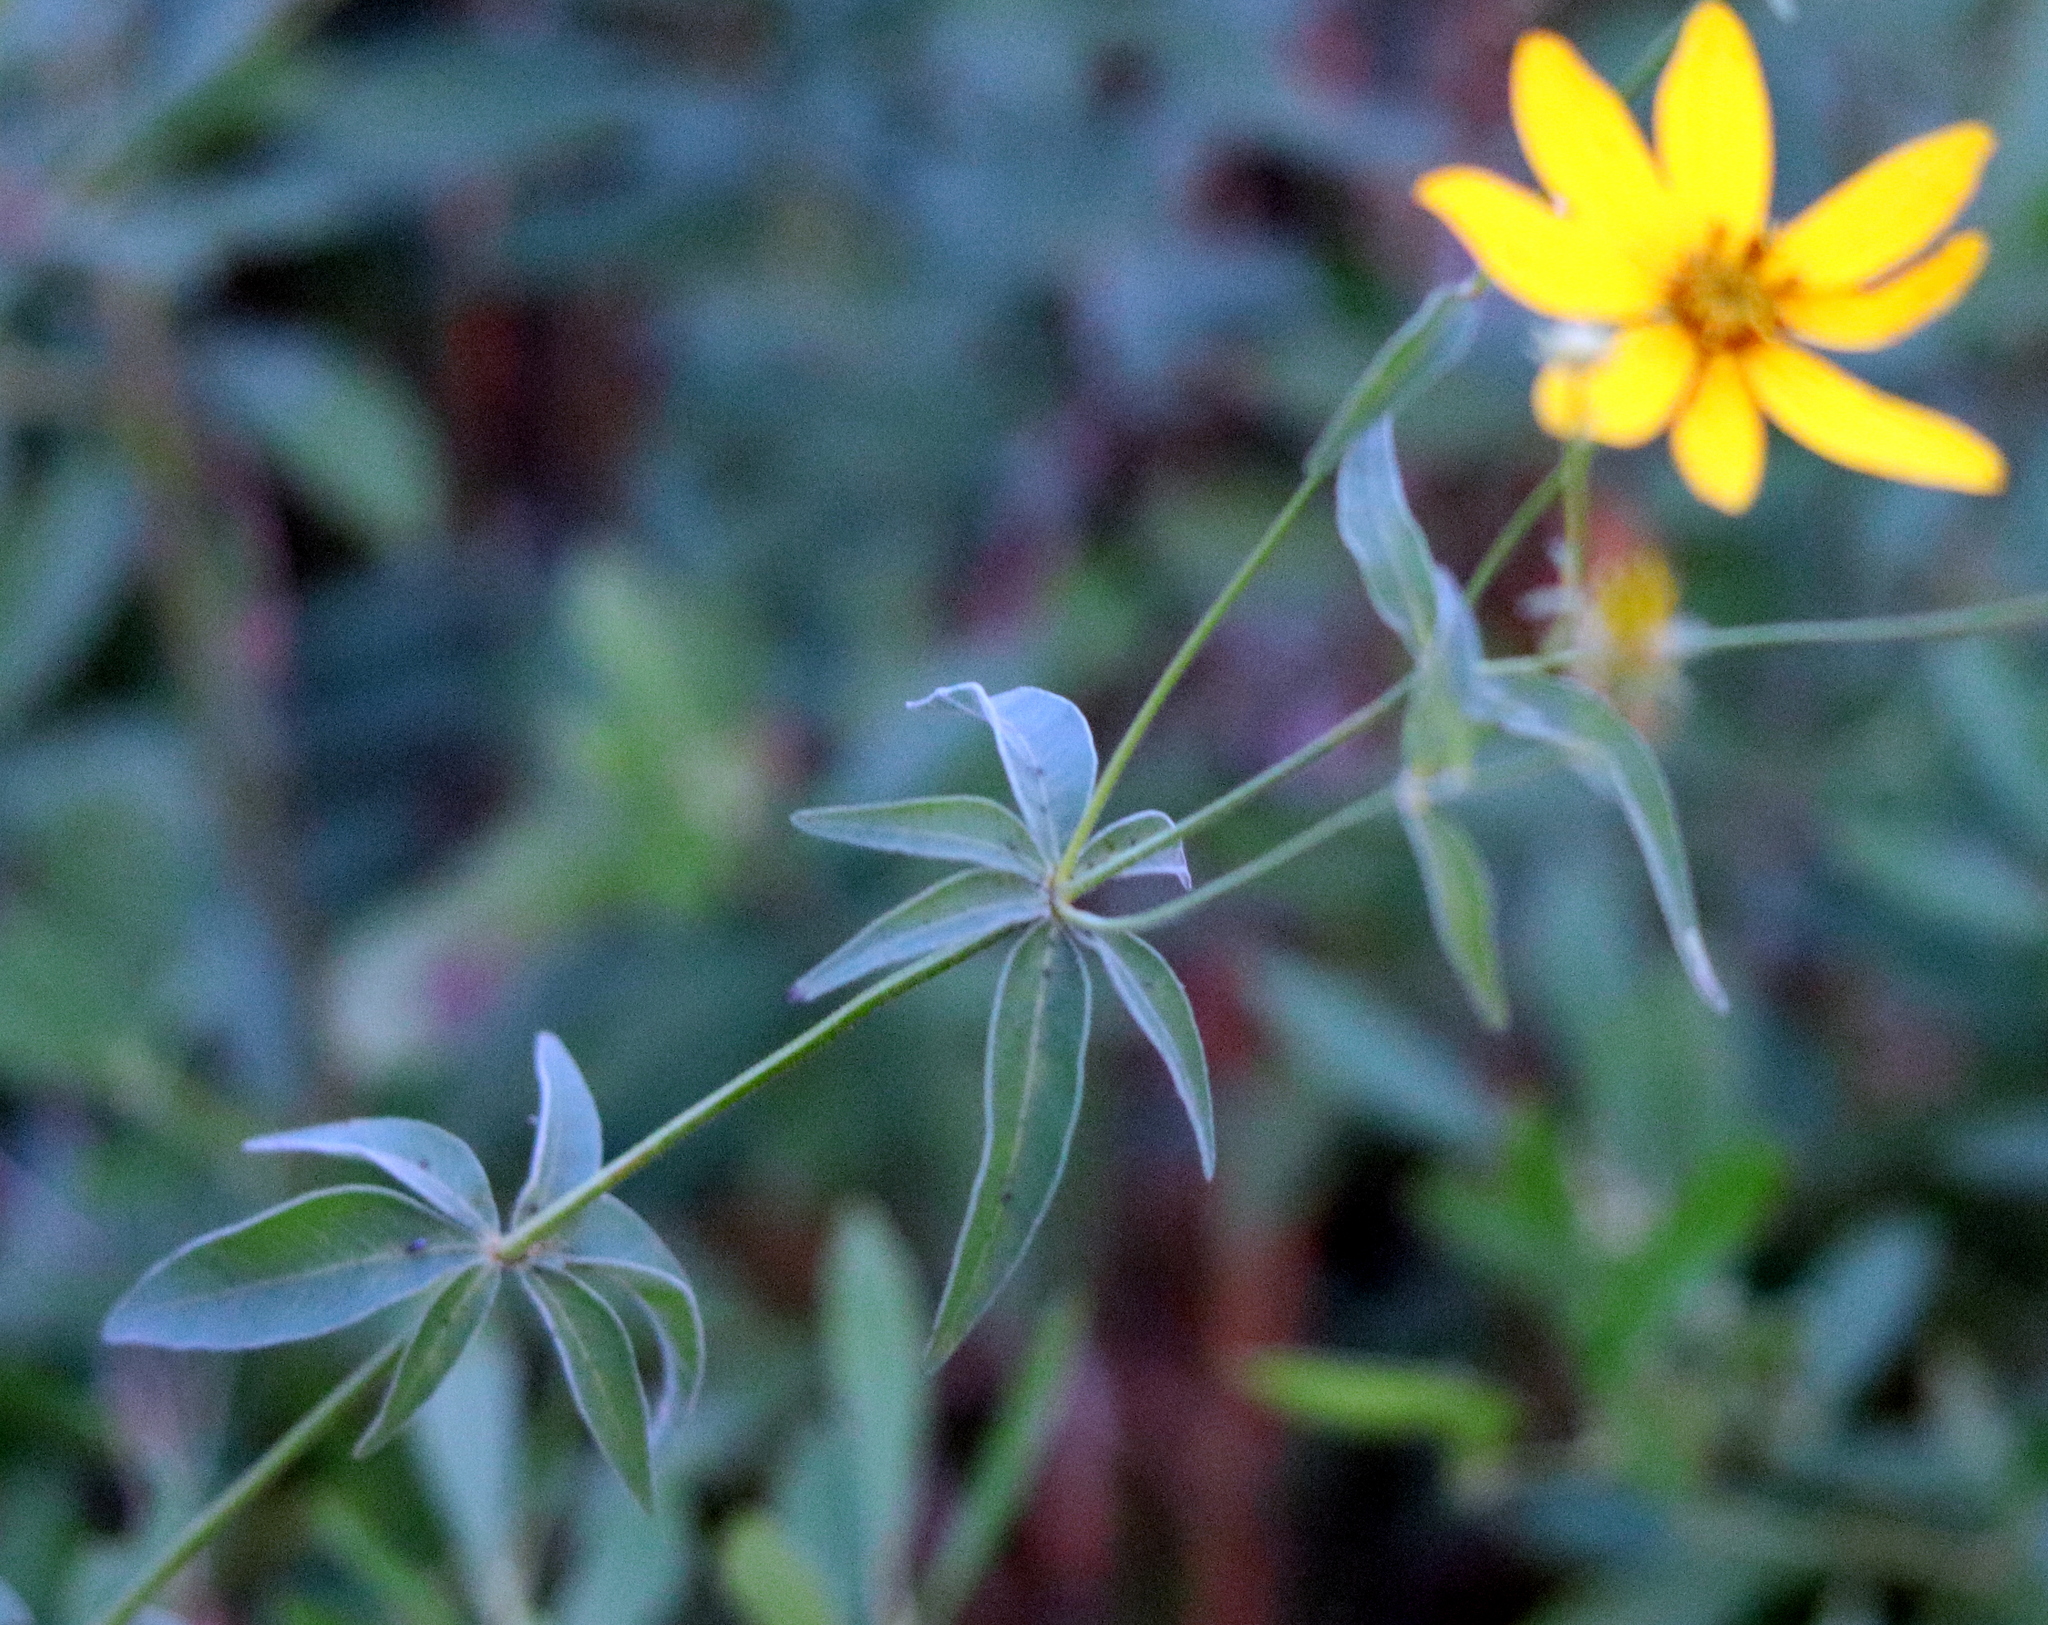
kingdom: Plantae
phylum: Tracheophyta
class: Magnoliopsida
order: Asterales
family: Asteraceae
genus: Coreopsis
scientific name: Coreopsis major
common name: Forest tickseed
